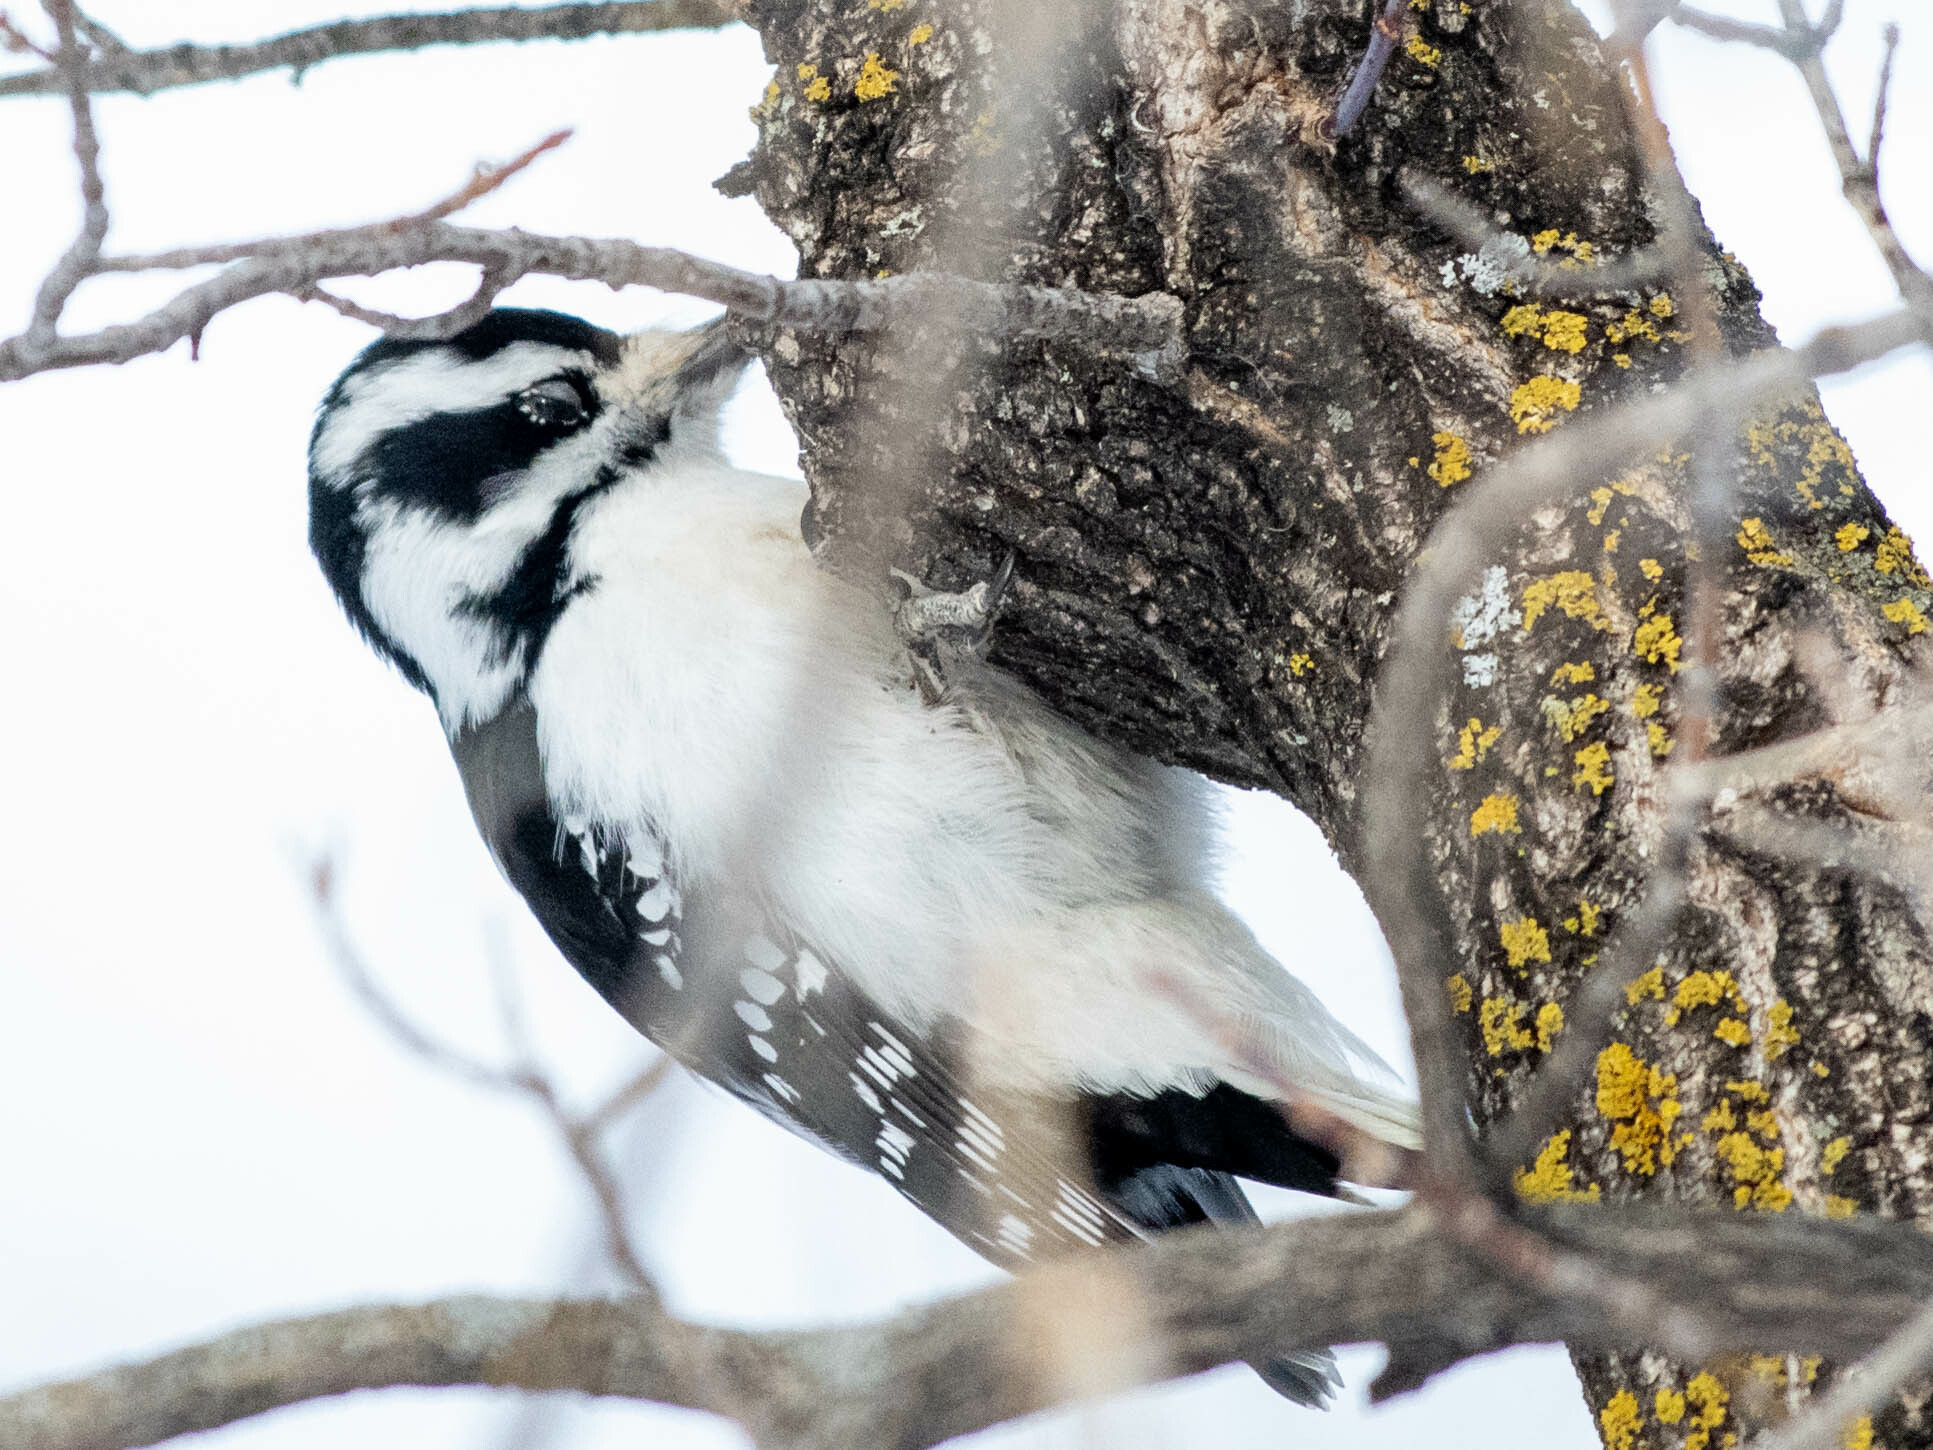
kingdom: Animalia
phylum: Chordata
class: Aves
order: Piciformes
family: Picidae
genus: Dryobates
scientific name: Dryobates pubescens
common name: Downy woodpecker
